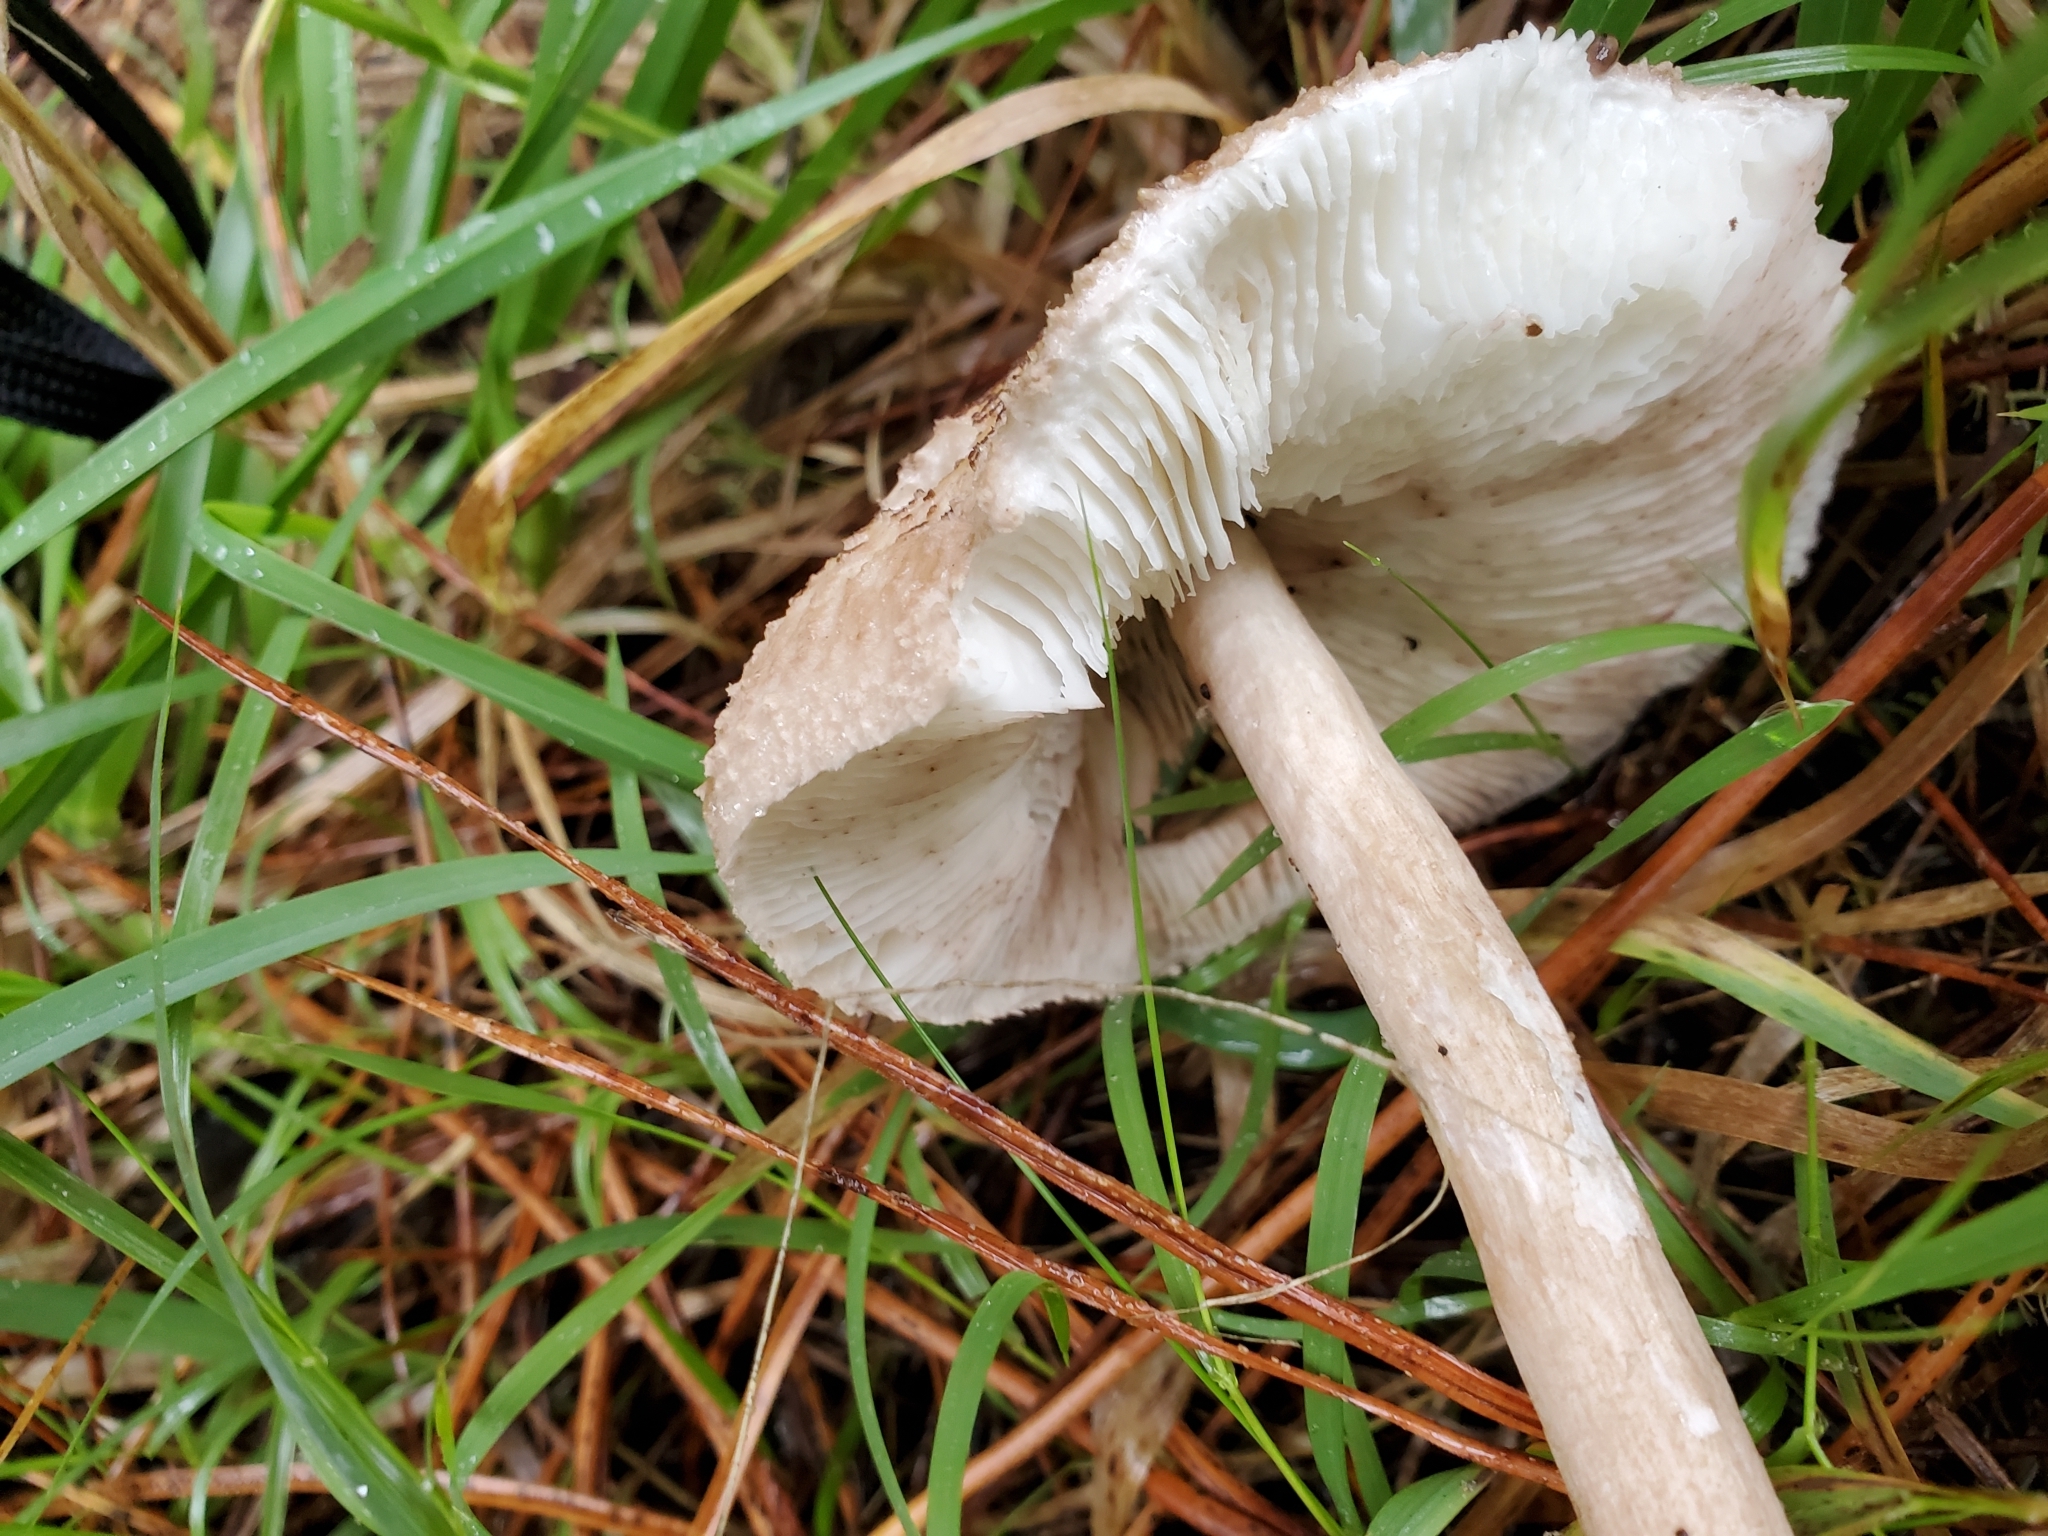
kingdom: Fungi
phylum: Basidiomycota
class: Agaricomycetes
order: Agaricales
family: Agaricaceae
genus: Macrolepiota
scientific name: Macrolepiota clelandii
